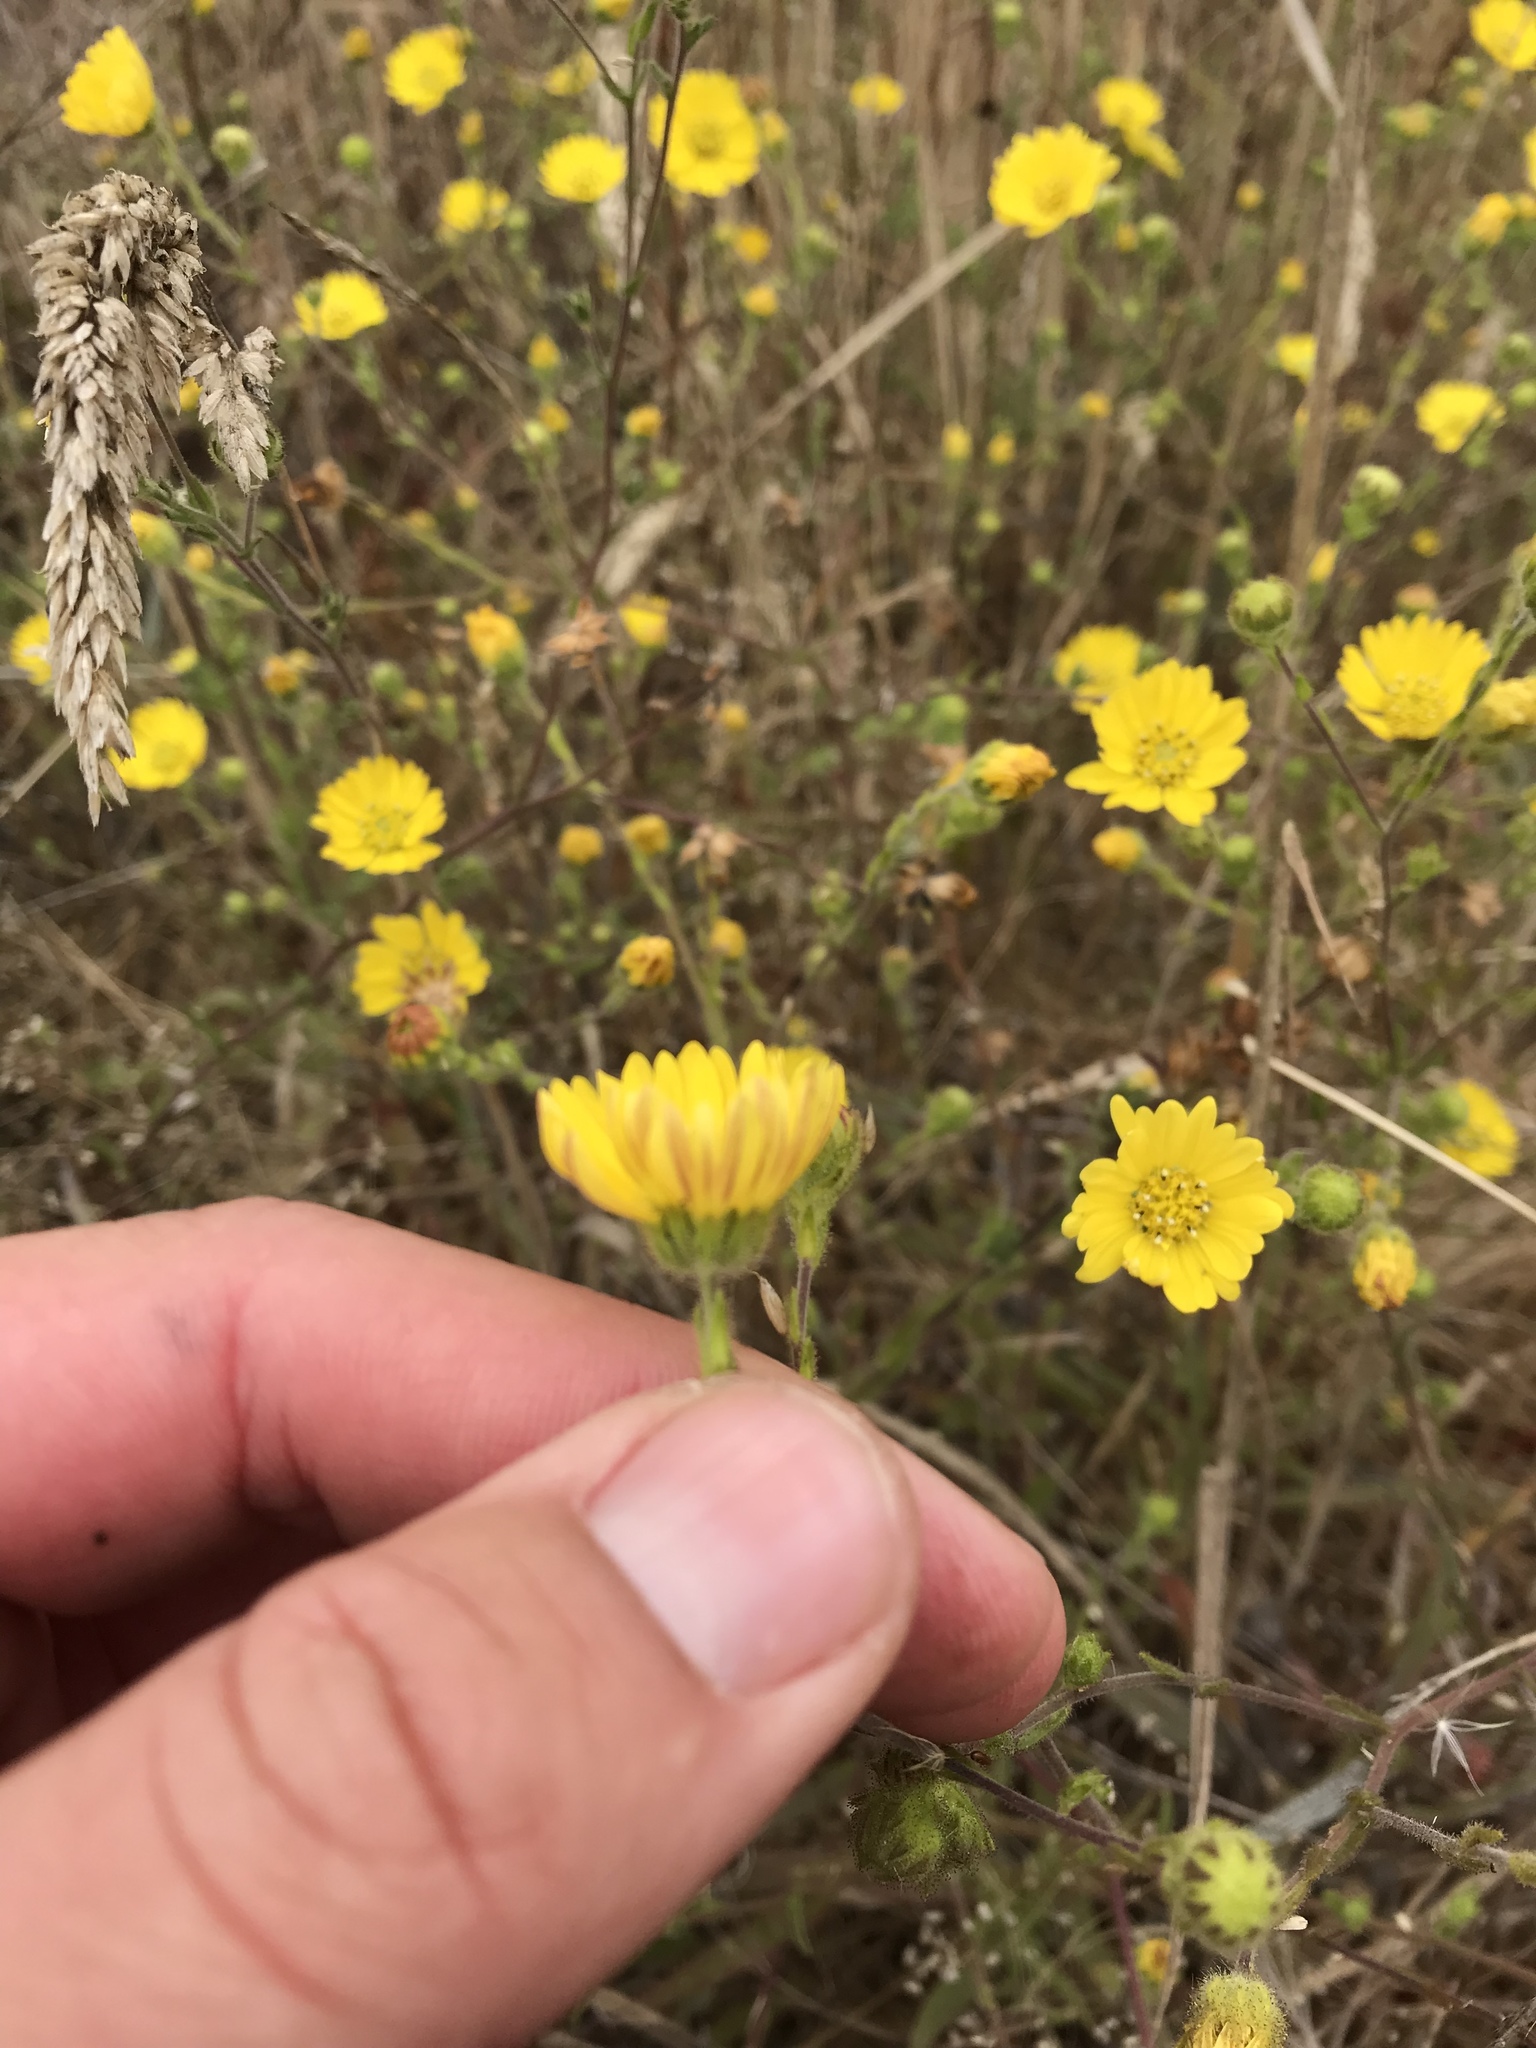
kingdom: Plantae
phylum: Tracheophyta
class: Magnoliopsida
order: Asterales
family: Asteraceae
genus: Hemizonia
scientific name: Hemizonia congesta
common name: Hayfield tarweed
